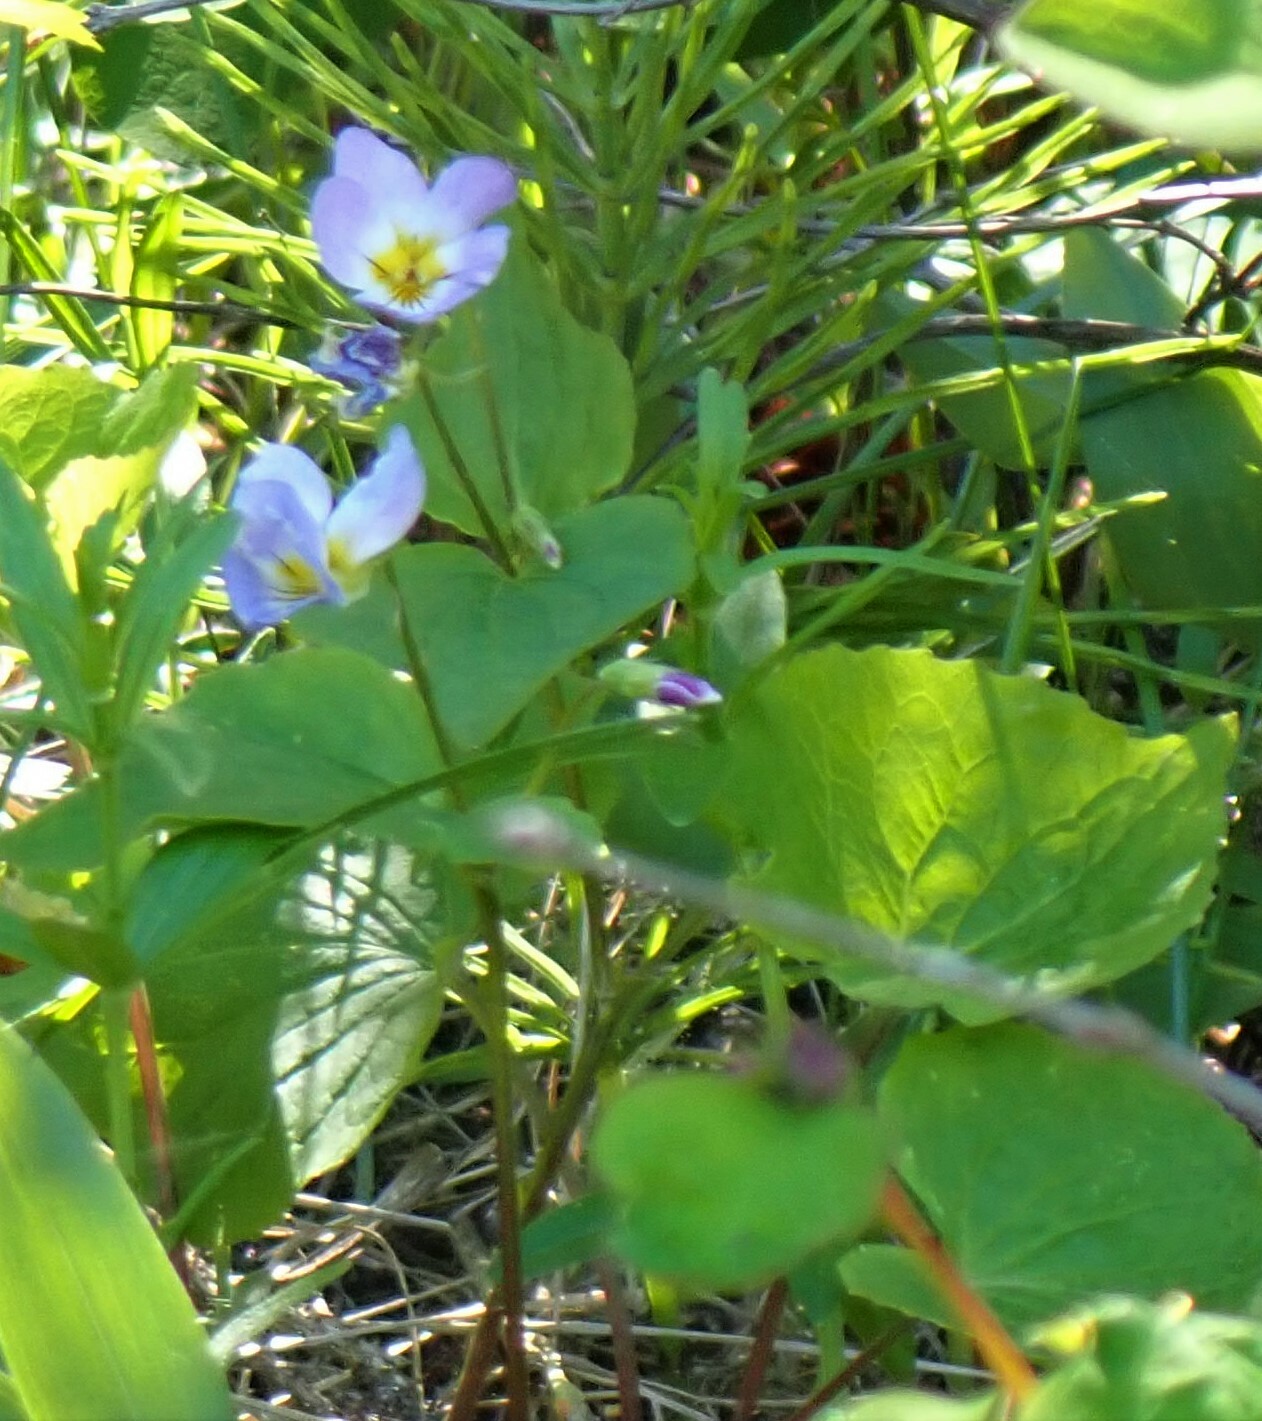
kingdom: Plantae
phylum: Tracheophyta
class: Magnoliopsida
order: Malpighiales
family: Violaceae
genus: Viola
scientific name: Viola canadensis
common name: Canada violet
